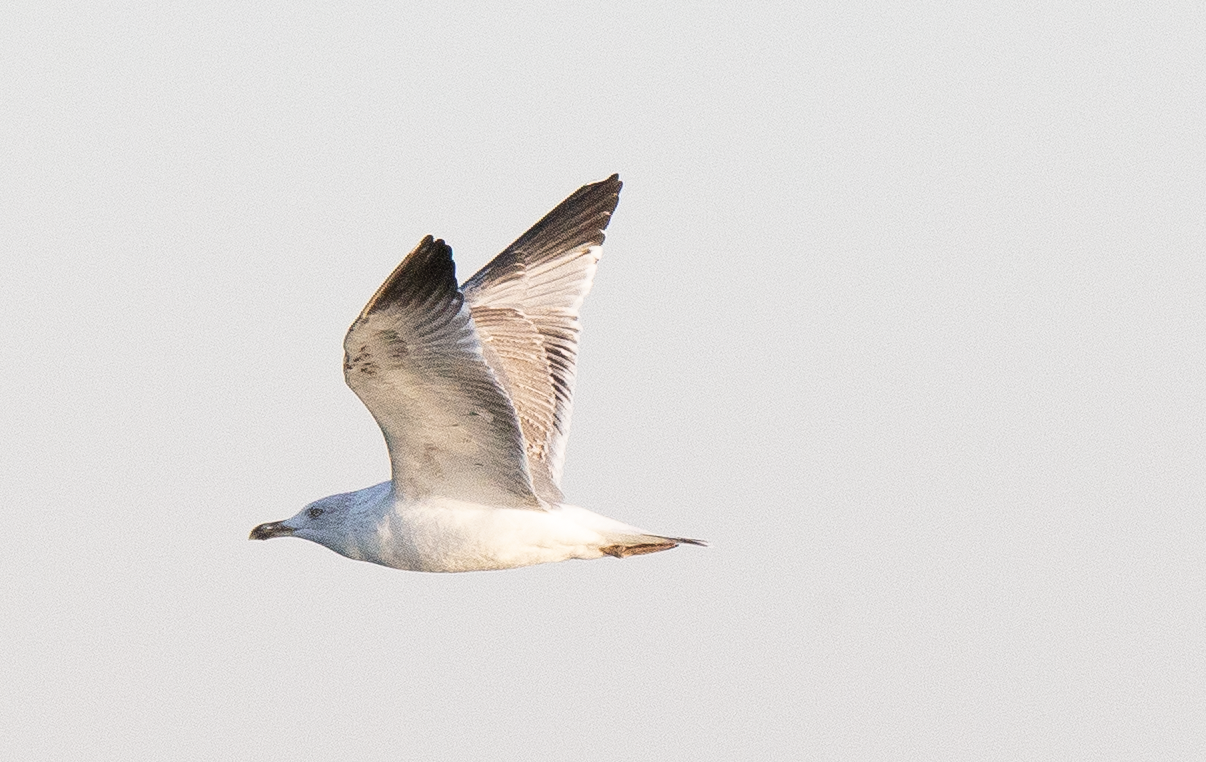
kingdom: Animalia
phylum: Chordata
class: Aves
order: Charadriiformes
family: Laridae
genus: Larus
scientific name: Larus michahellis
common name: Yellow-legged gull
